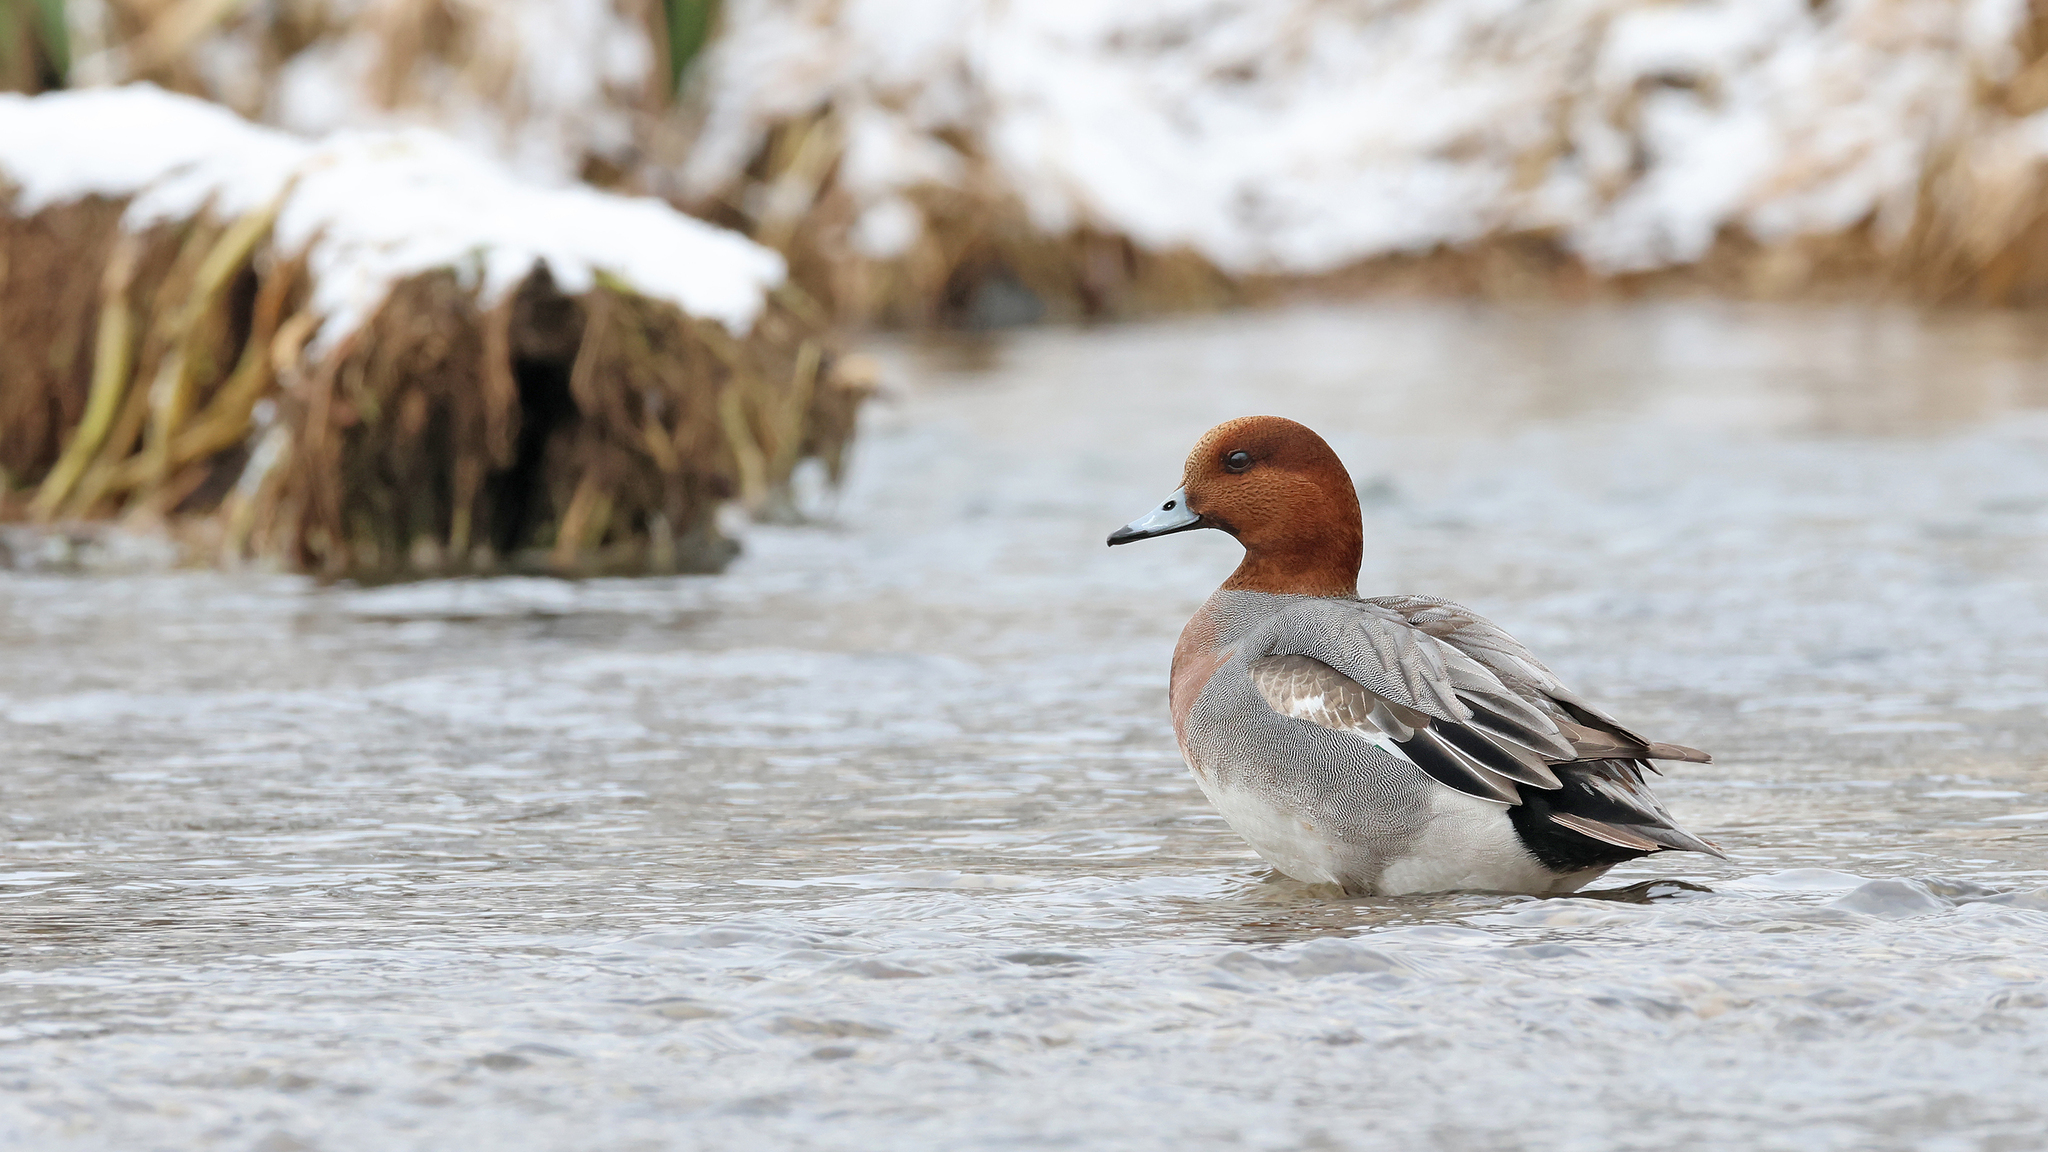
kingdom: Animalia
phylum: Chordata
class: Aves
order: Anseriformes
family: Anatidae
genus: Mareca
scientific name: Mareca penelope
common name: Eurasian wigeon
